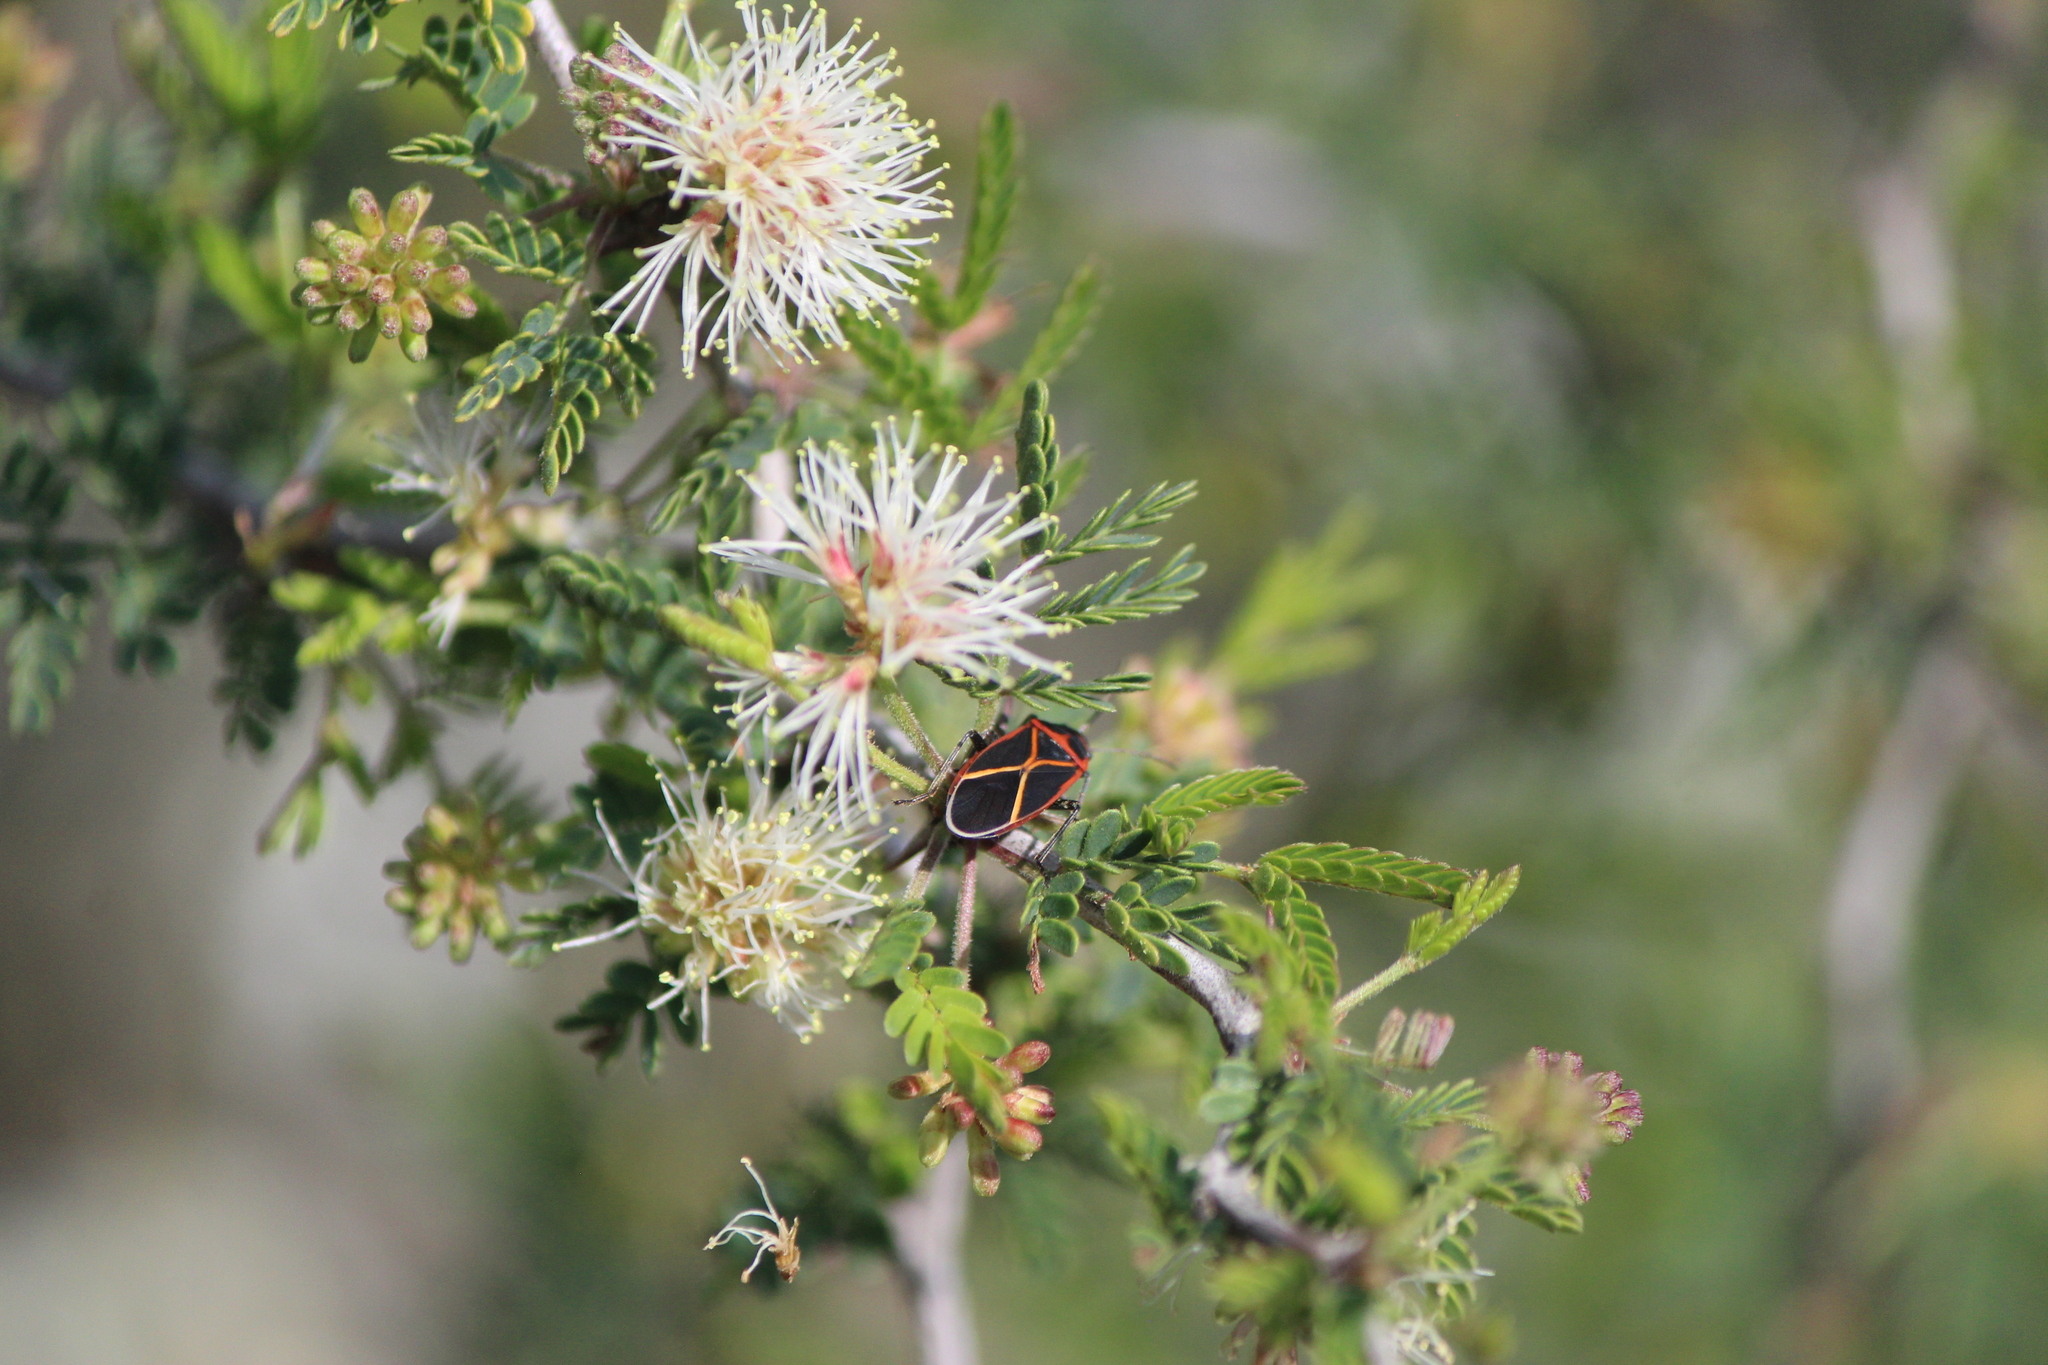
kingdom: Animalia
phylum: Arthropoda
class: Insecta
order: Hemiptera
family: Lygaeidae
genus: Ochrostomus
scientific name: Ochrostomus uhleri
